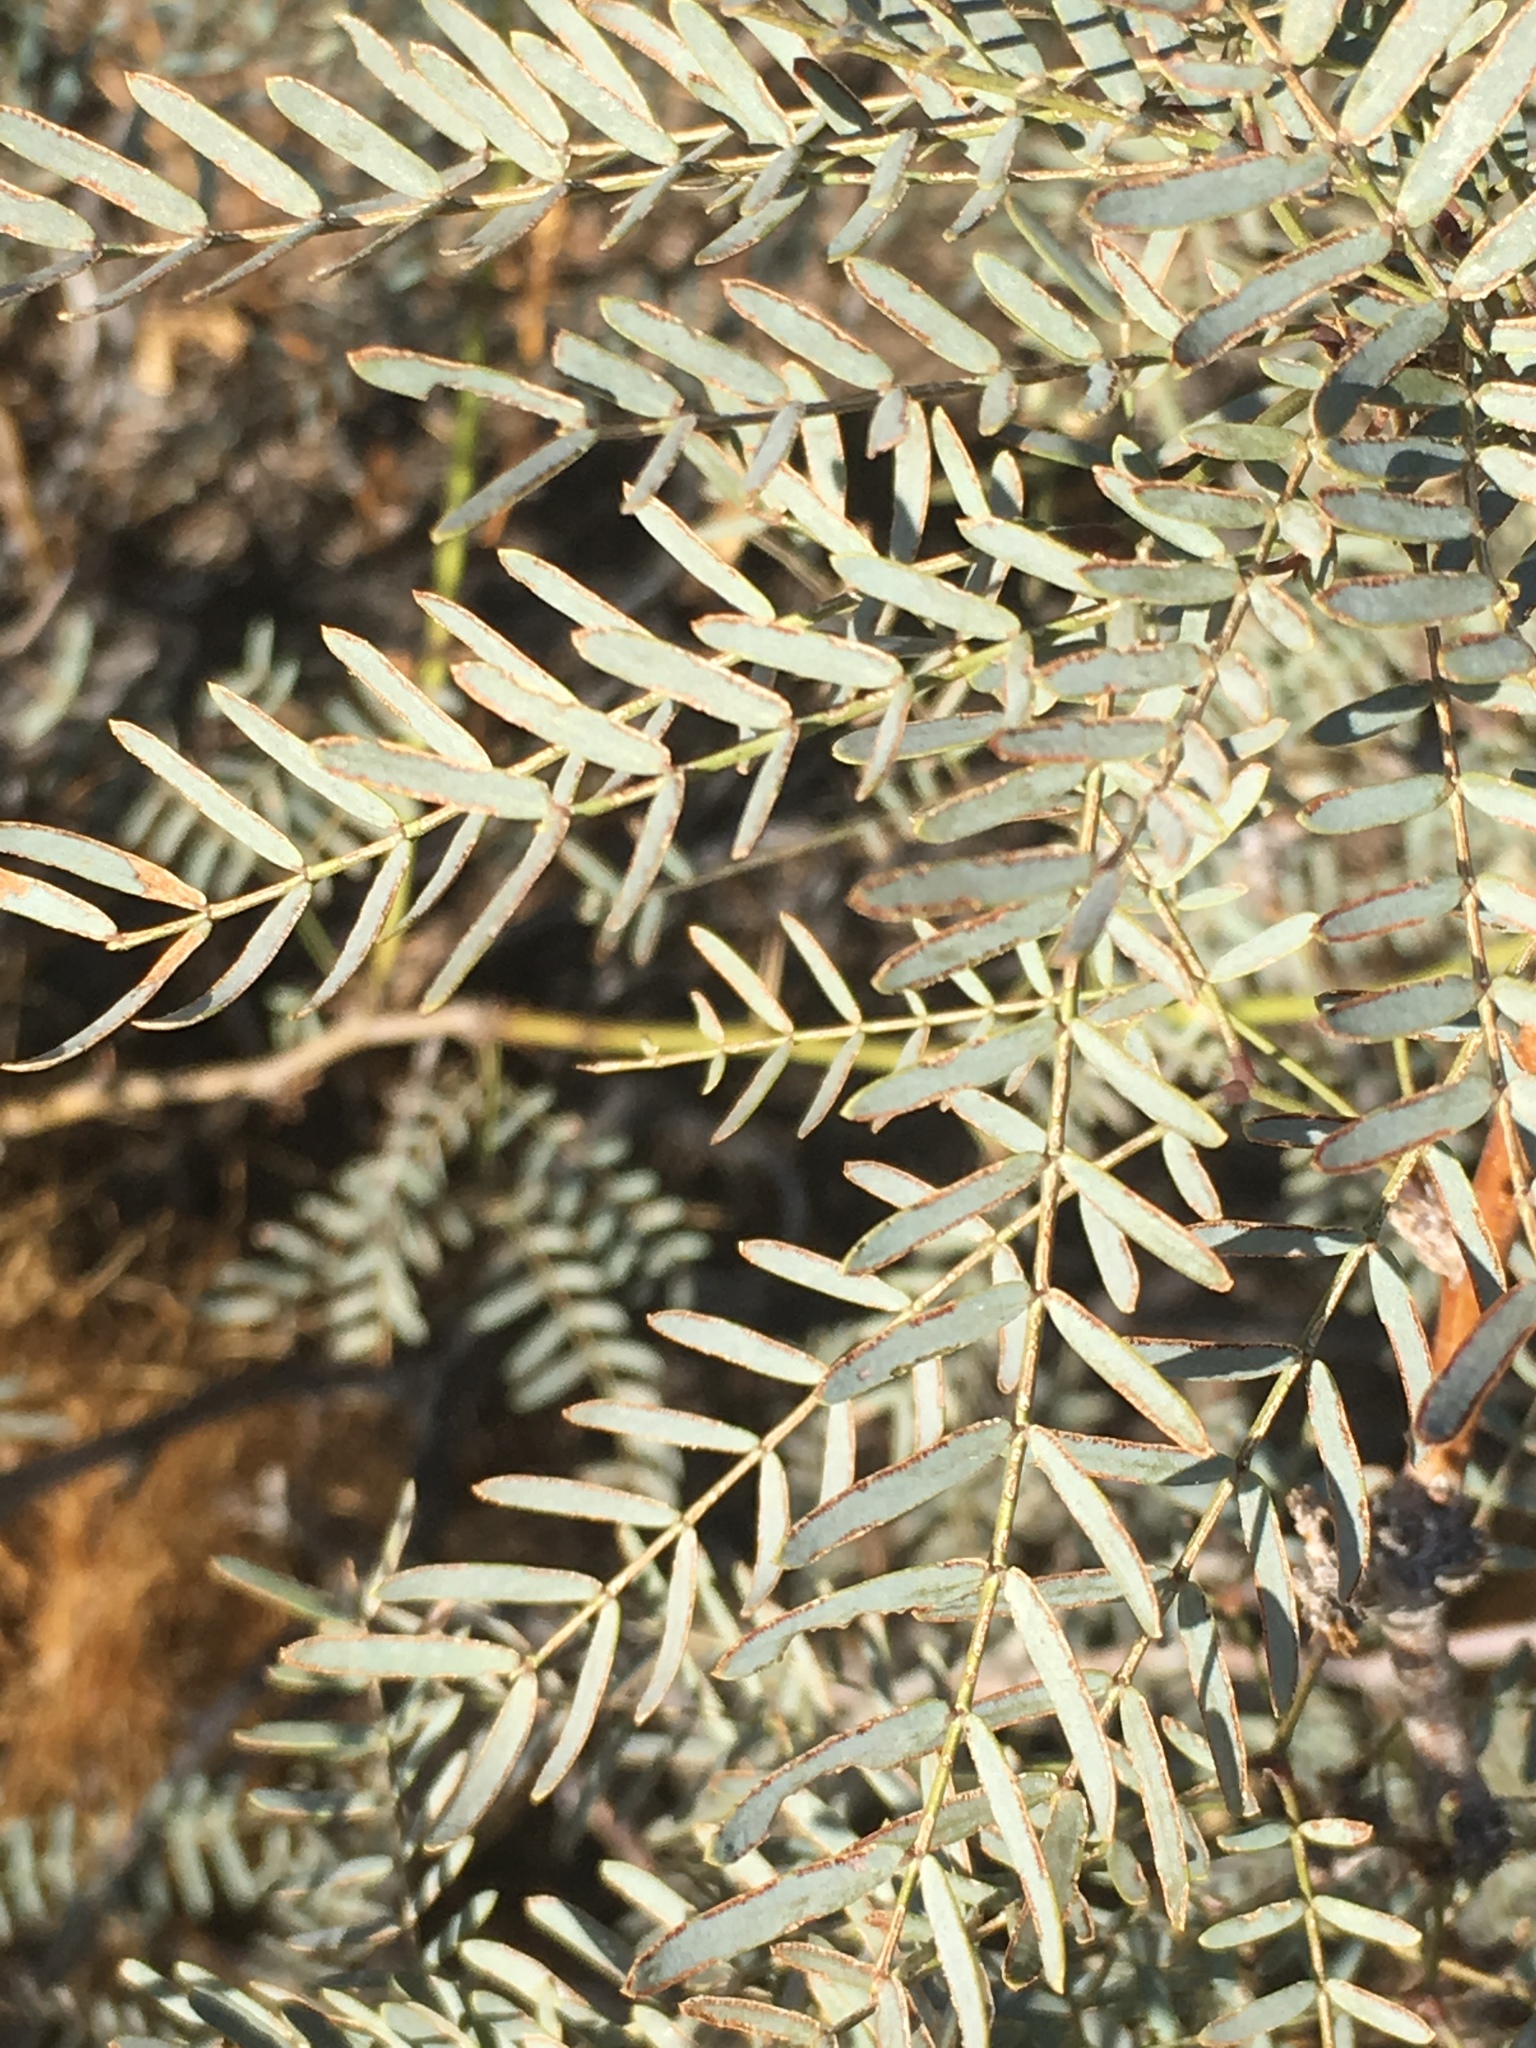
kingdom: Plantae
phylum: Tracheophyta
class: Magnoliopsida
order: Fabales
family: Fabaceae
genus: Prosopis
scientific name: Prosopis pubescens
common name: Screw-bean
